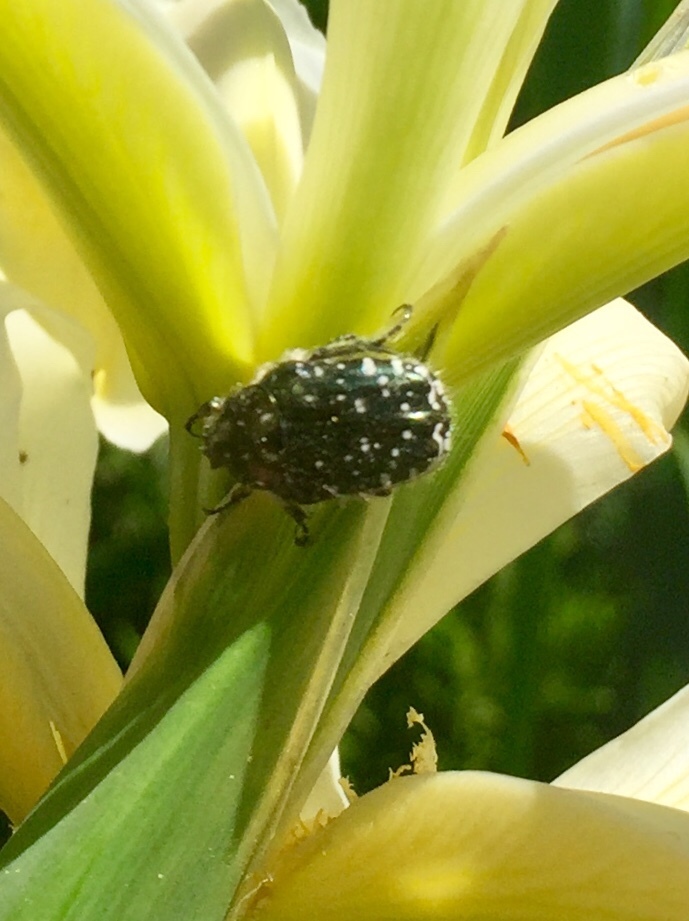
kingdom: Animalia
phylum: Arthropoda
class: Insecta
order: Coleoptera
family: Scarabaeidae
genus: Oxythyrea
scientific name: Oxythyrea funesta
